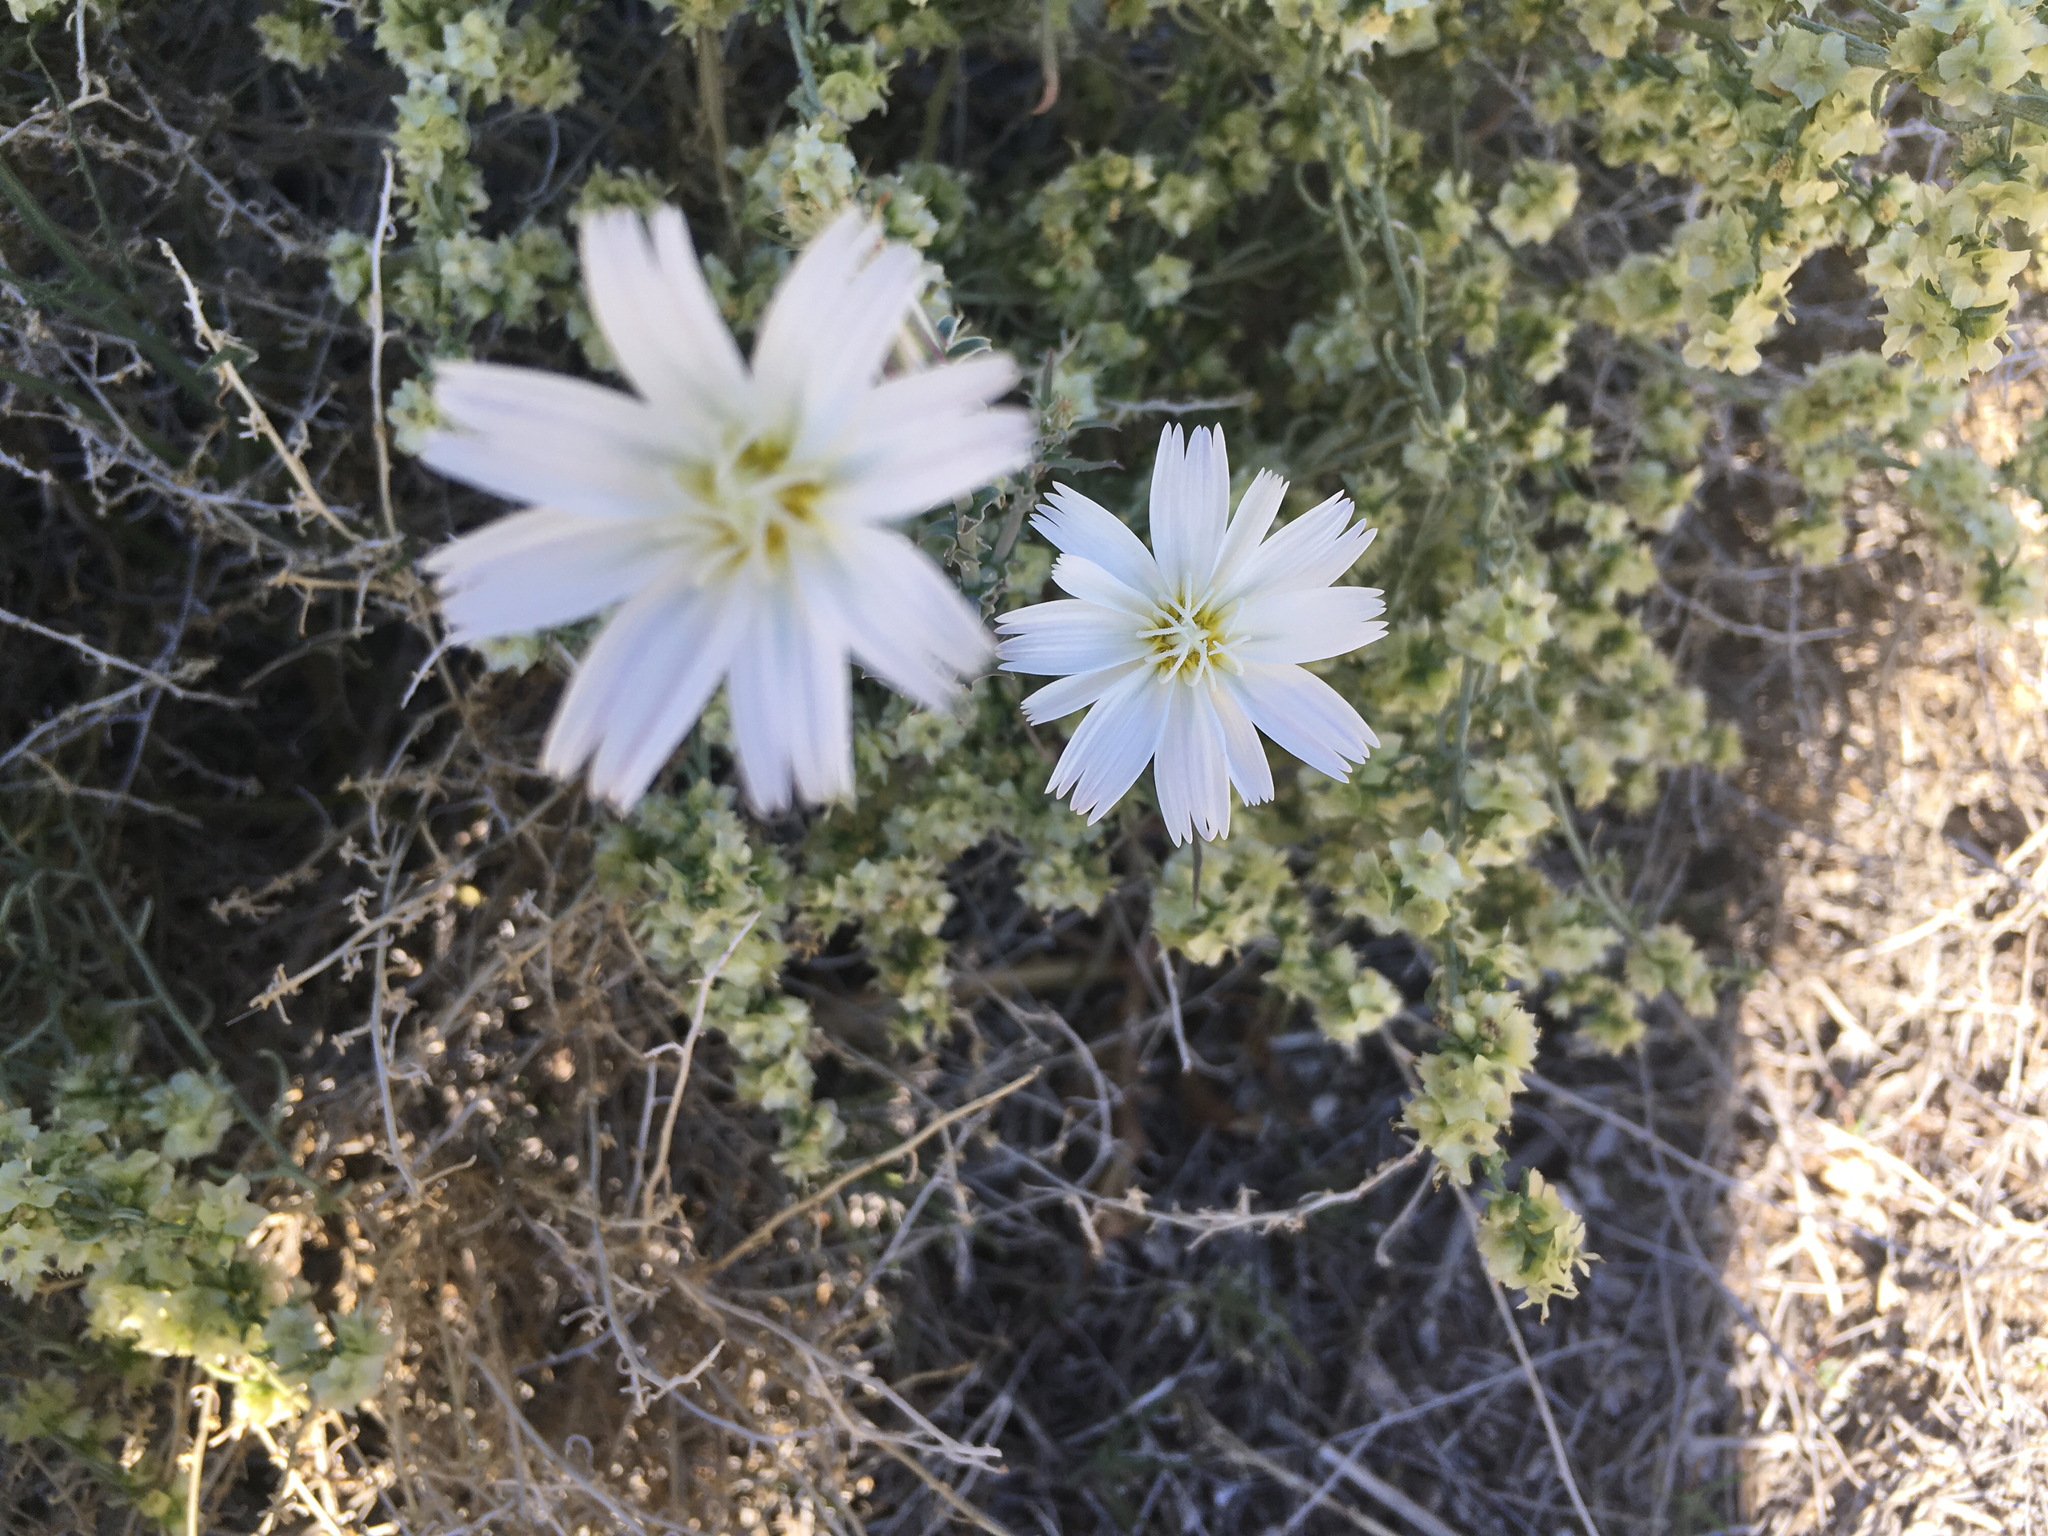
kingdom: Plantae
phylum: Tracheophyta
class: Magnoliopsida
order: Asterales
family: Asteraceae
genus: Rafinesquia
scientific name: Rafinesquia neomexicana
